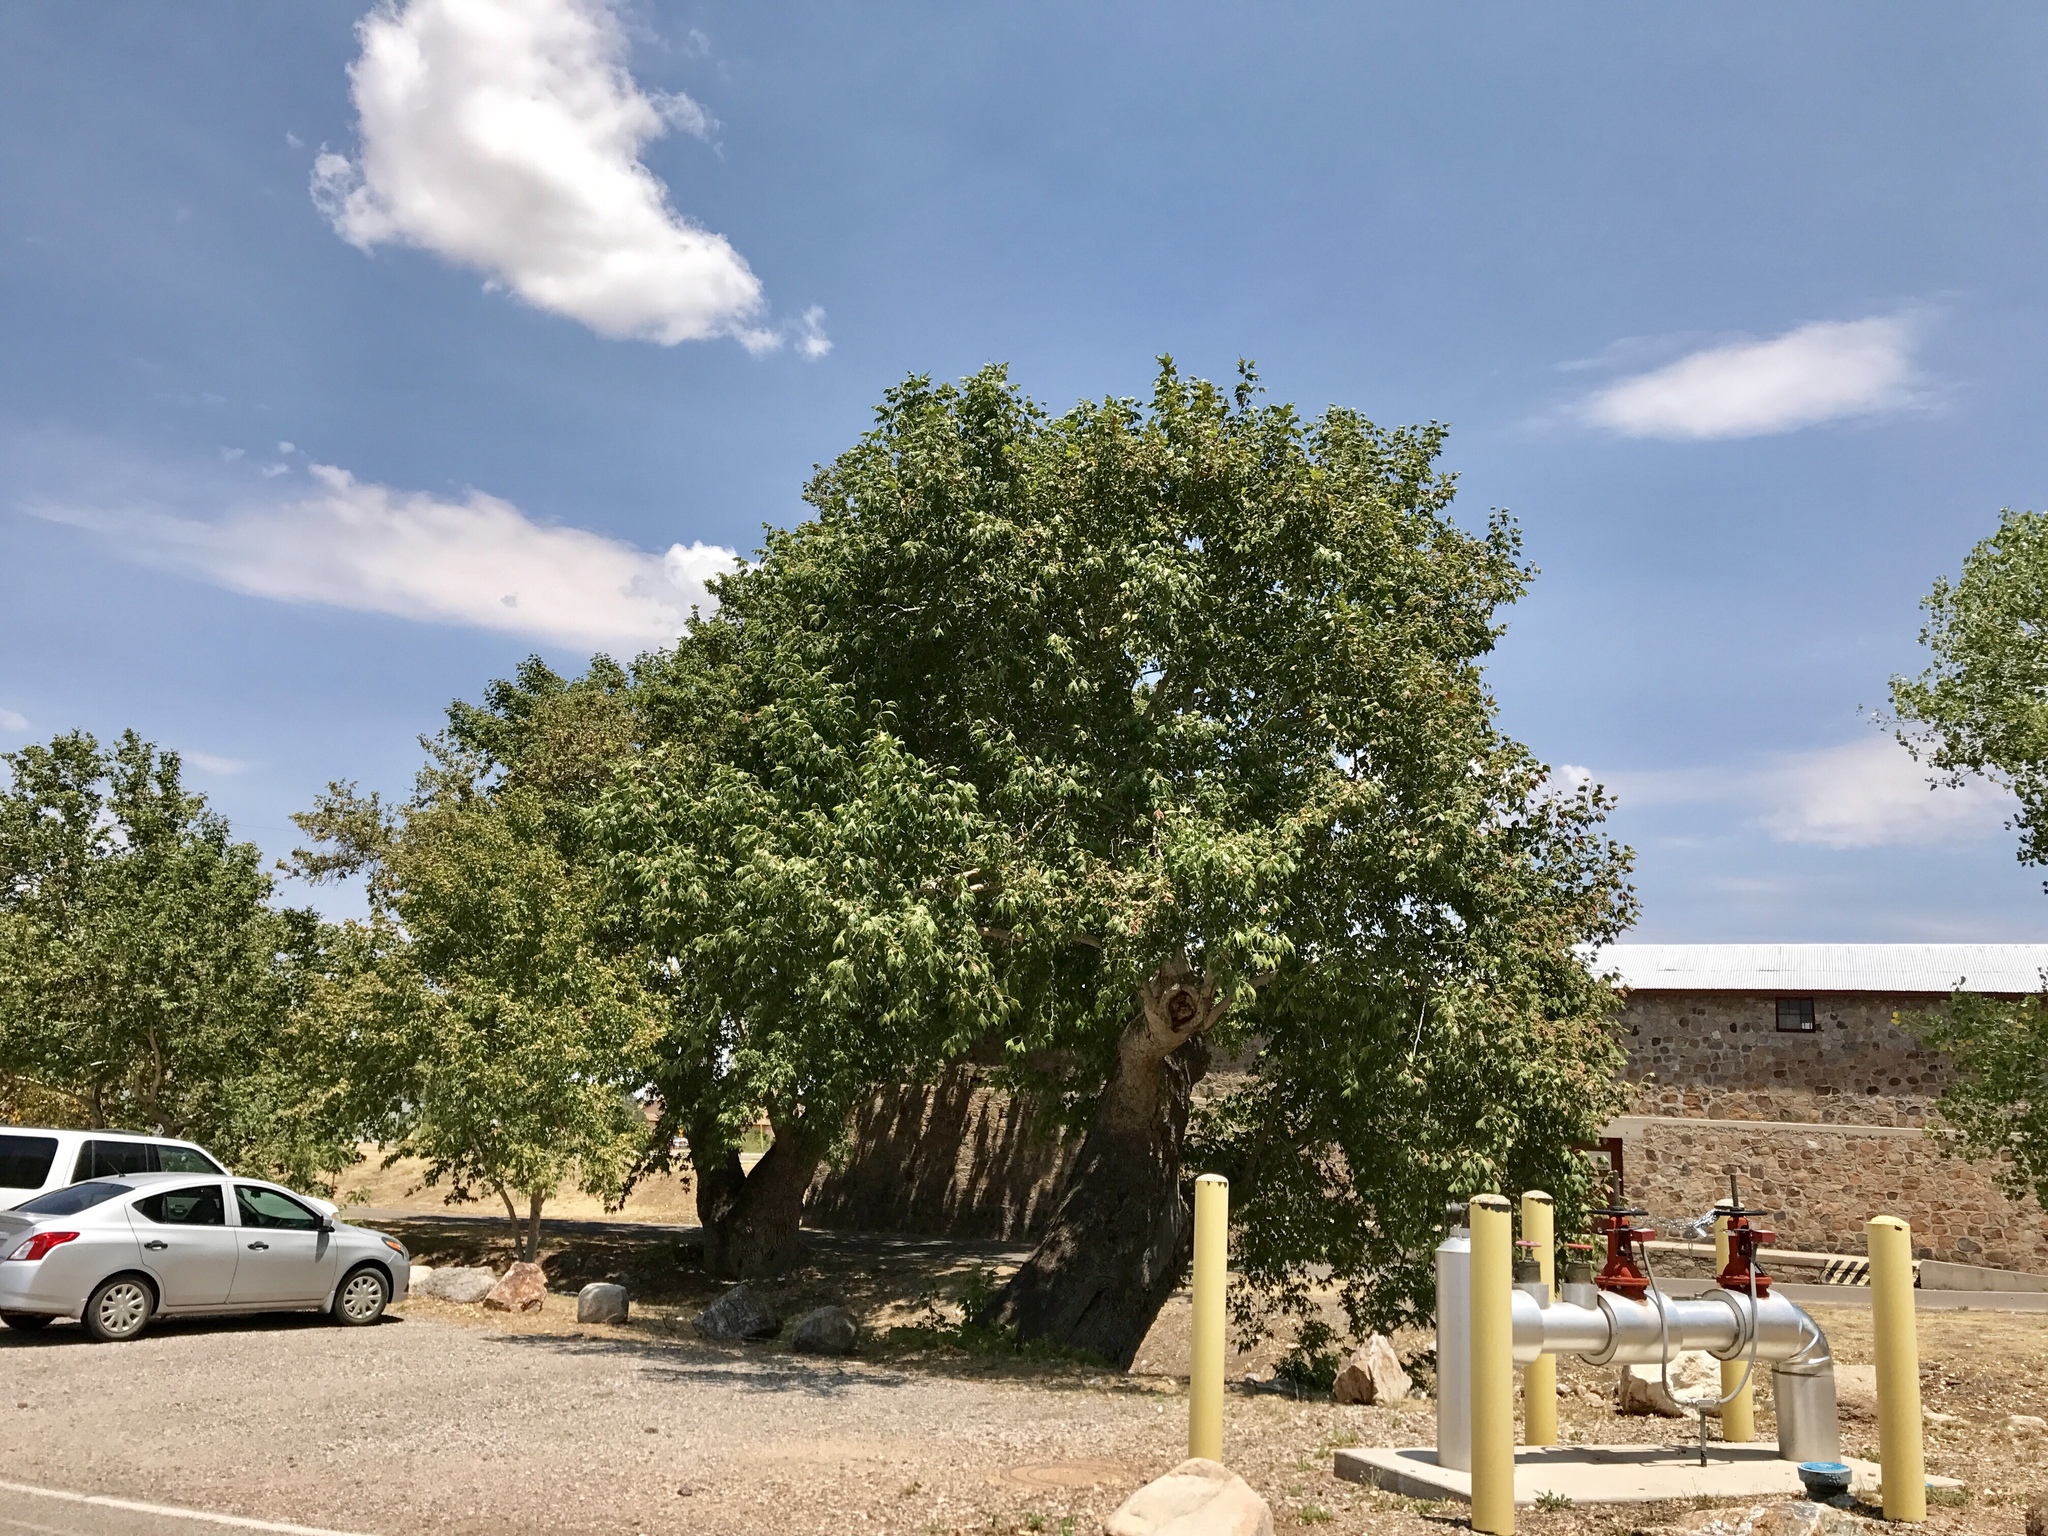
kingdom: Plantae
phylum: Tracheophyta
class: Magnoliopsida
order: Proteales
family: Platanaceae
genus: Platanus
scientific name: Platanus wrightii
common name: Arizona sycamore
